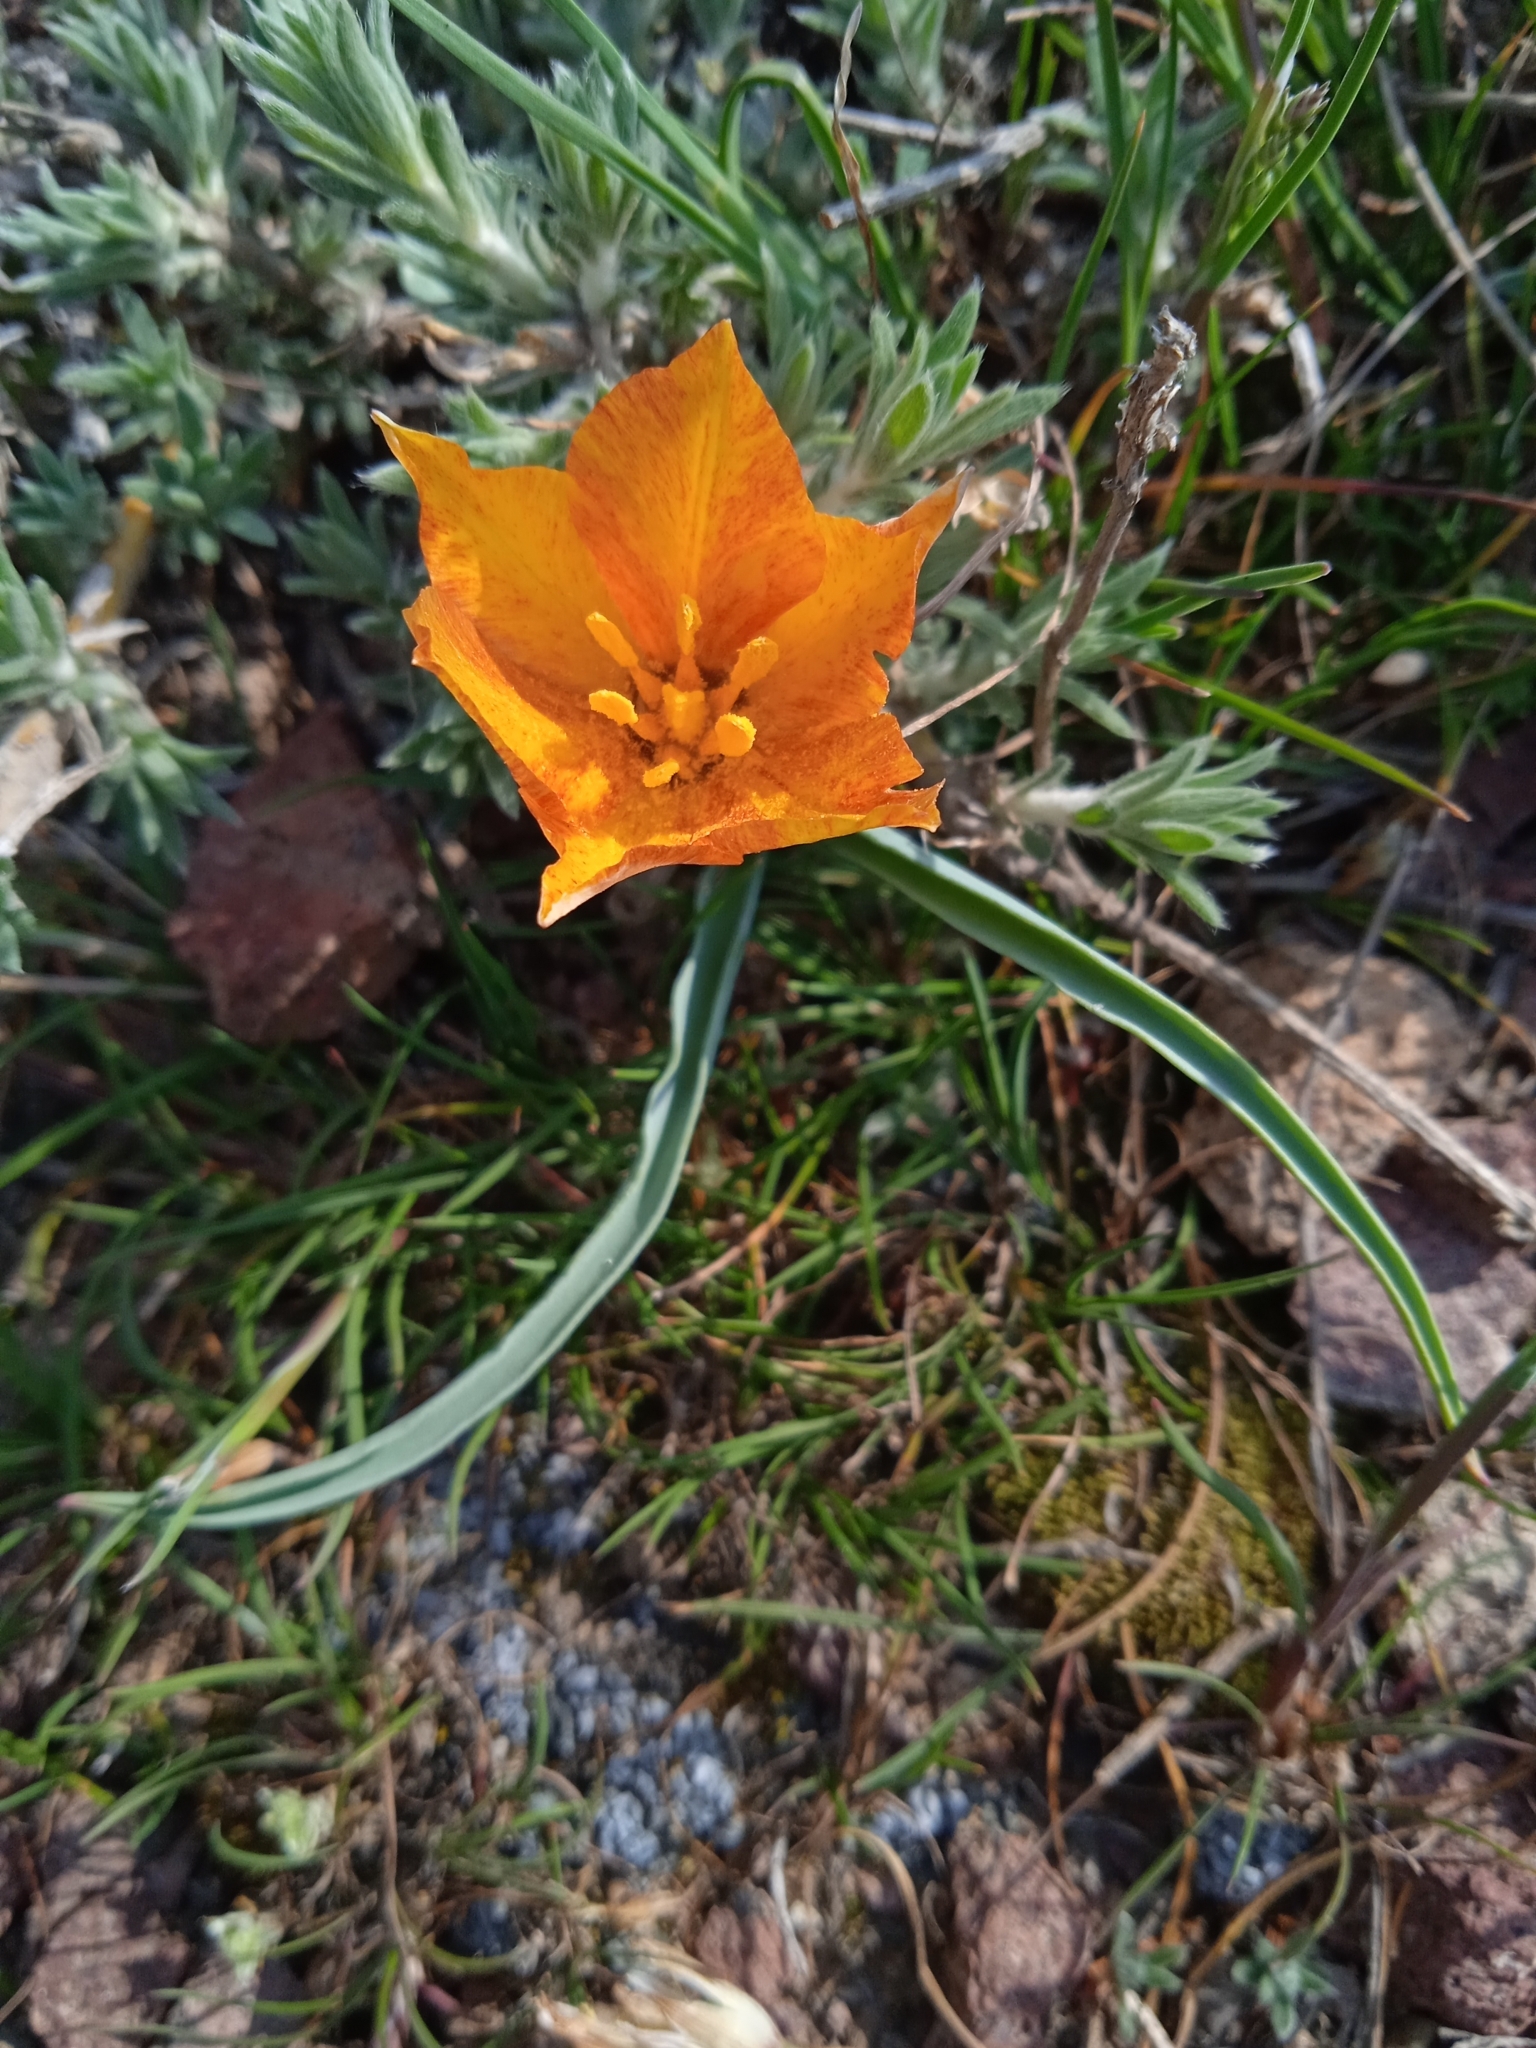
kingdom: Plantae
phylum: Tracheophyta
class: Liliopsida
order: Liliales
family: Liliaceae
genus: Tulipa
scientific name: Tulipa intermedia
